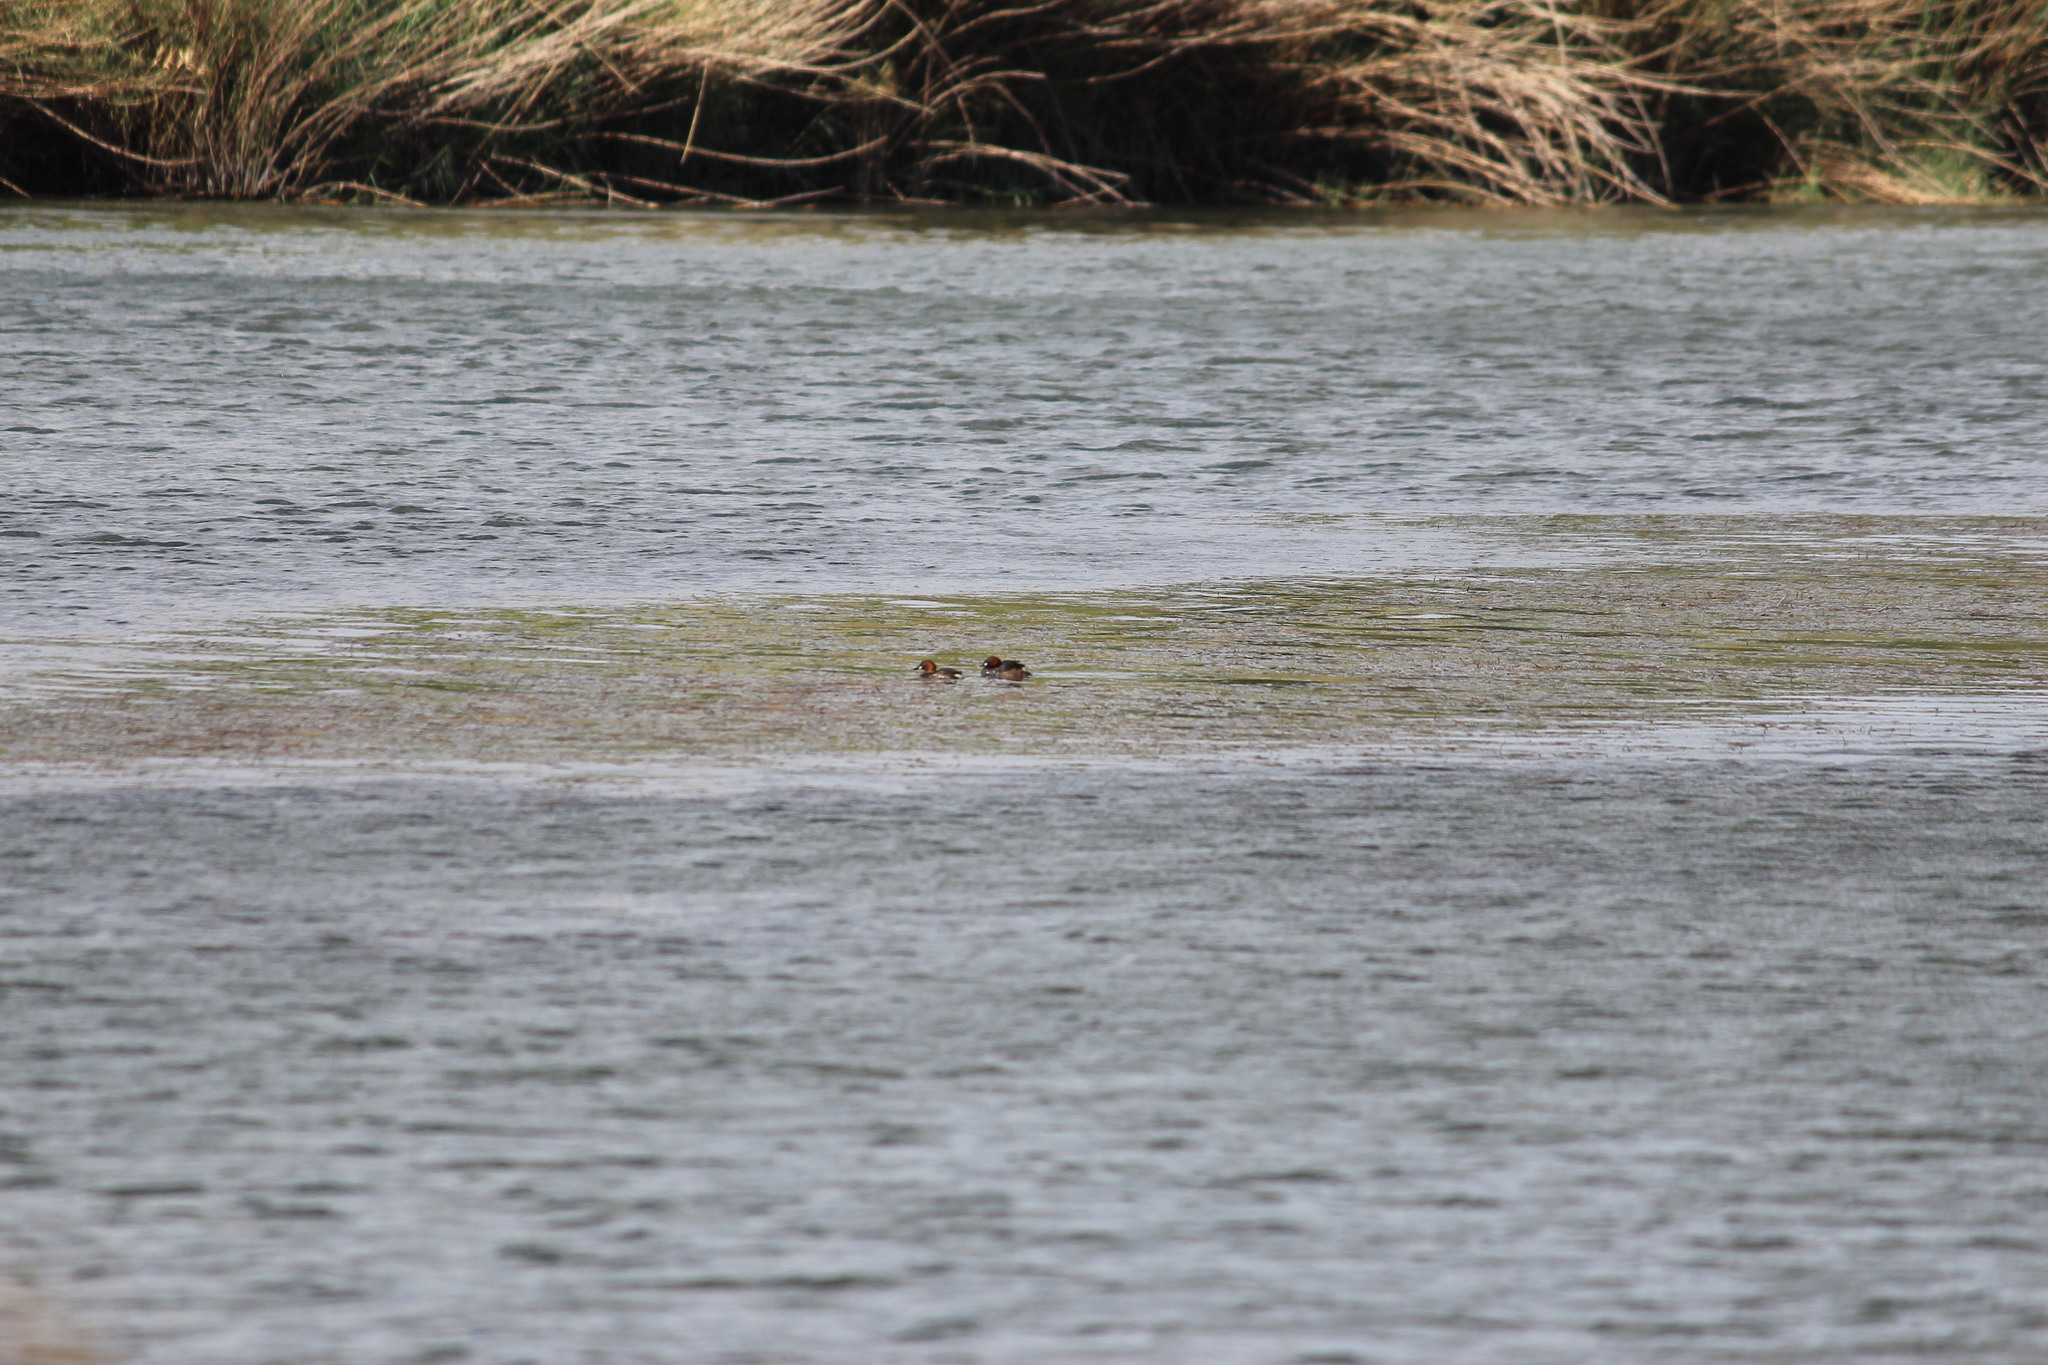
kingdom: Animalia
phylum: Chordata
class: Aves
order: Podicipediformes
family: Podicipedidae
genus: Tachybaptus
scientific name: Tachybaptus ruficollis
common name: Little grebe
